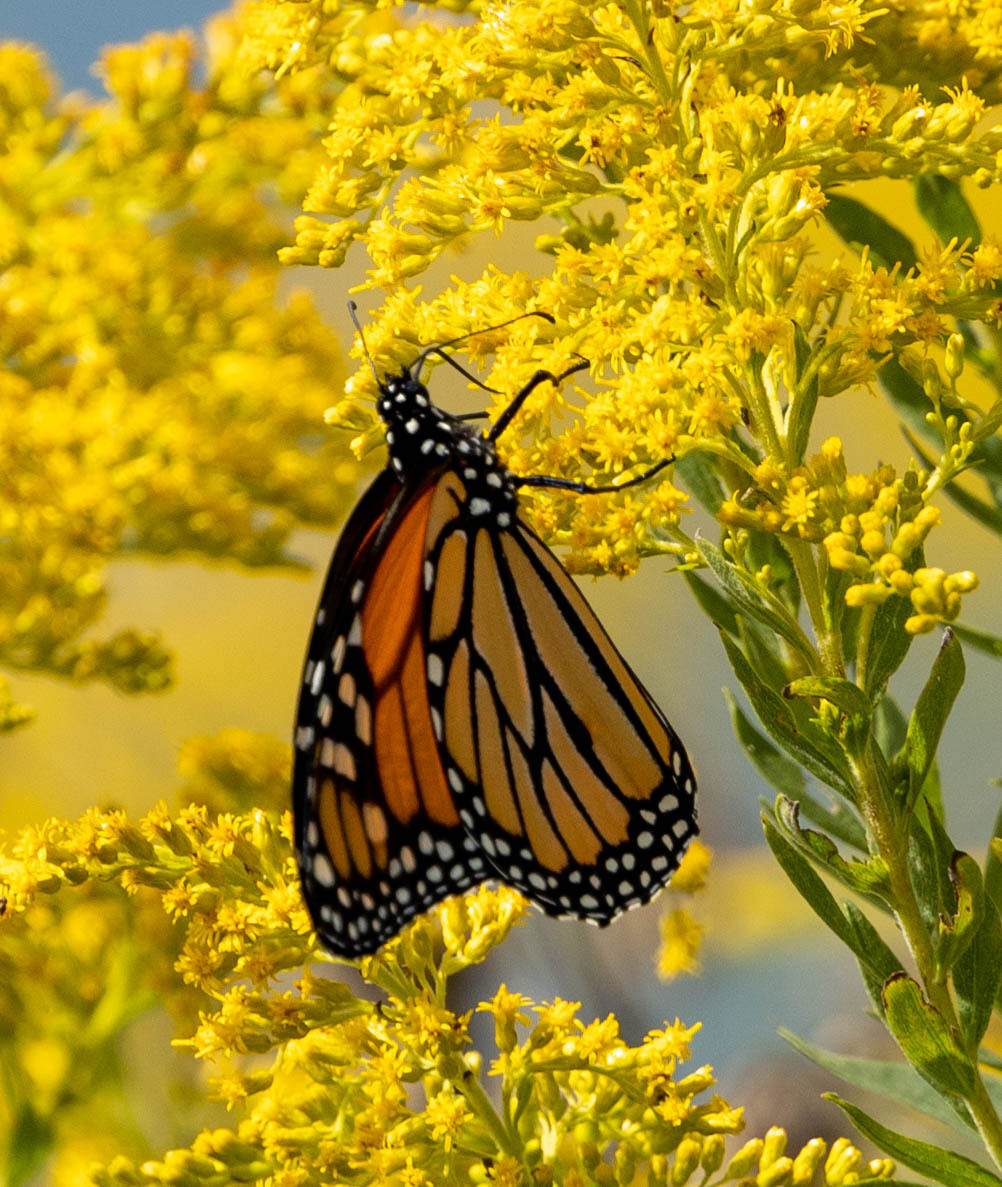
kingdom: Animalia
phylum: Arthropoda
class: Insecta
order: Lepidoptera
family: Nymphalidae
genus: Danaus
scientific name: Danaus plexippus
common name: Monarch
